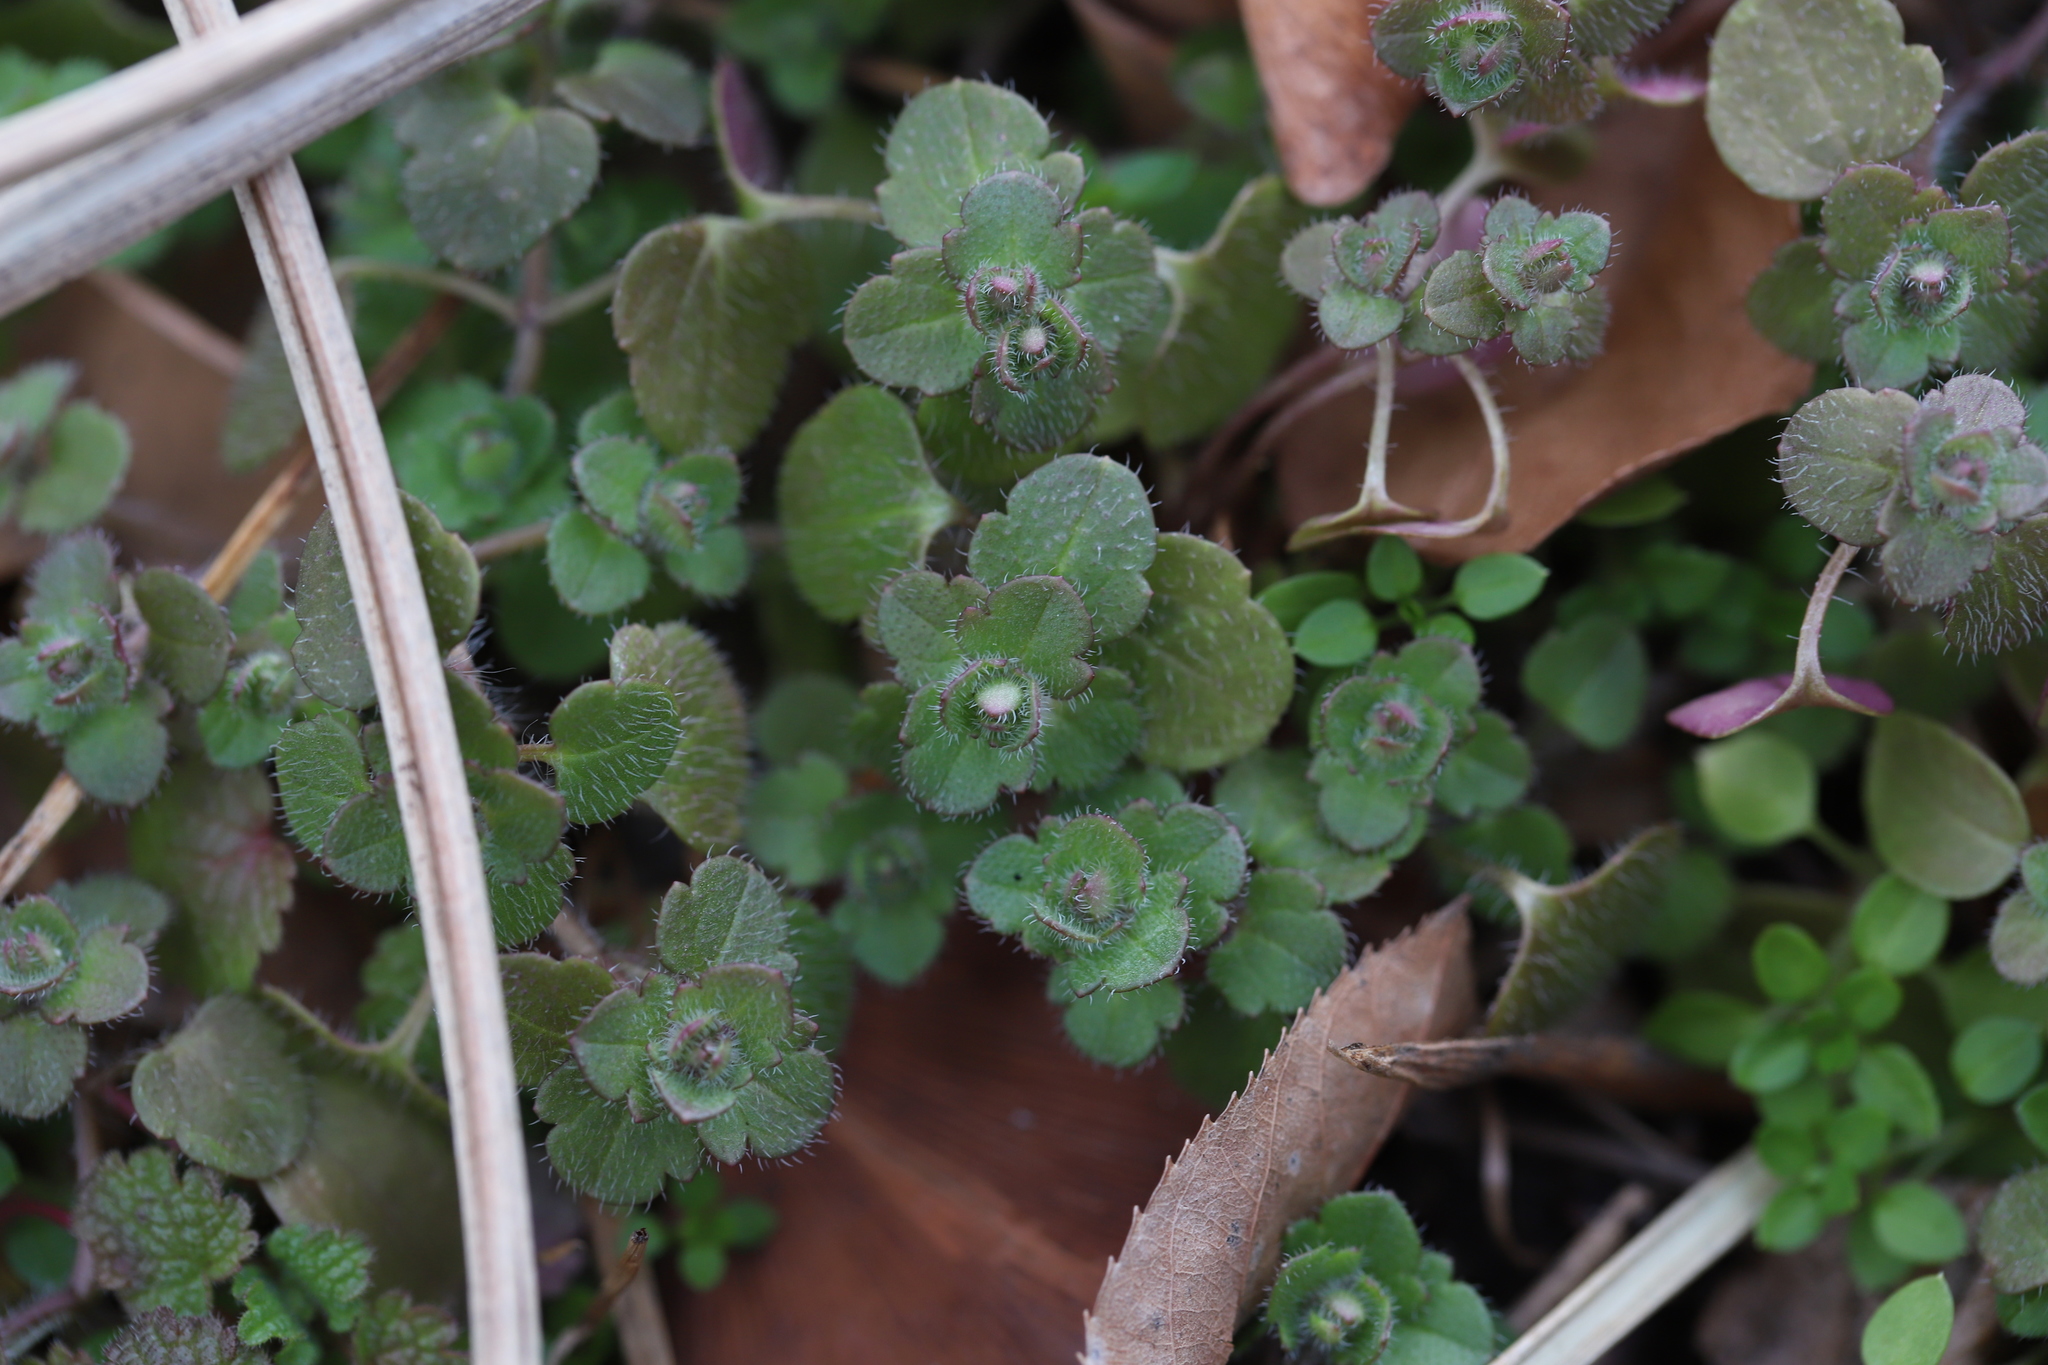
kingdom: Plantae
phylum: Tracheophyta
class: Magnoliopsida
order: Lamiales
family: Plantaginaceae
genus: Veronica
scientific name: Veronica hederifolia
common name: Ivy-leaved speedwell
